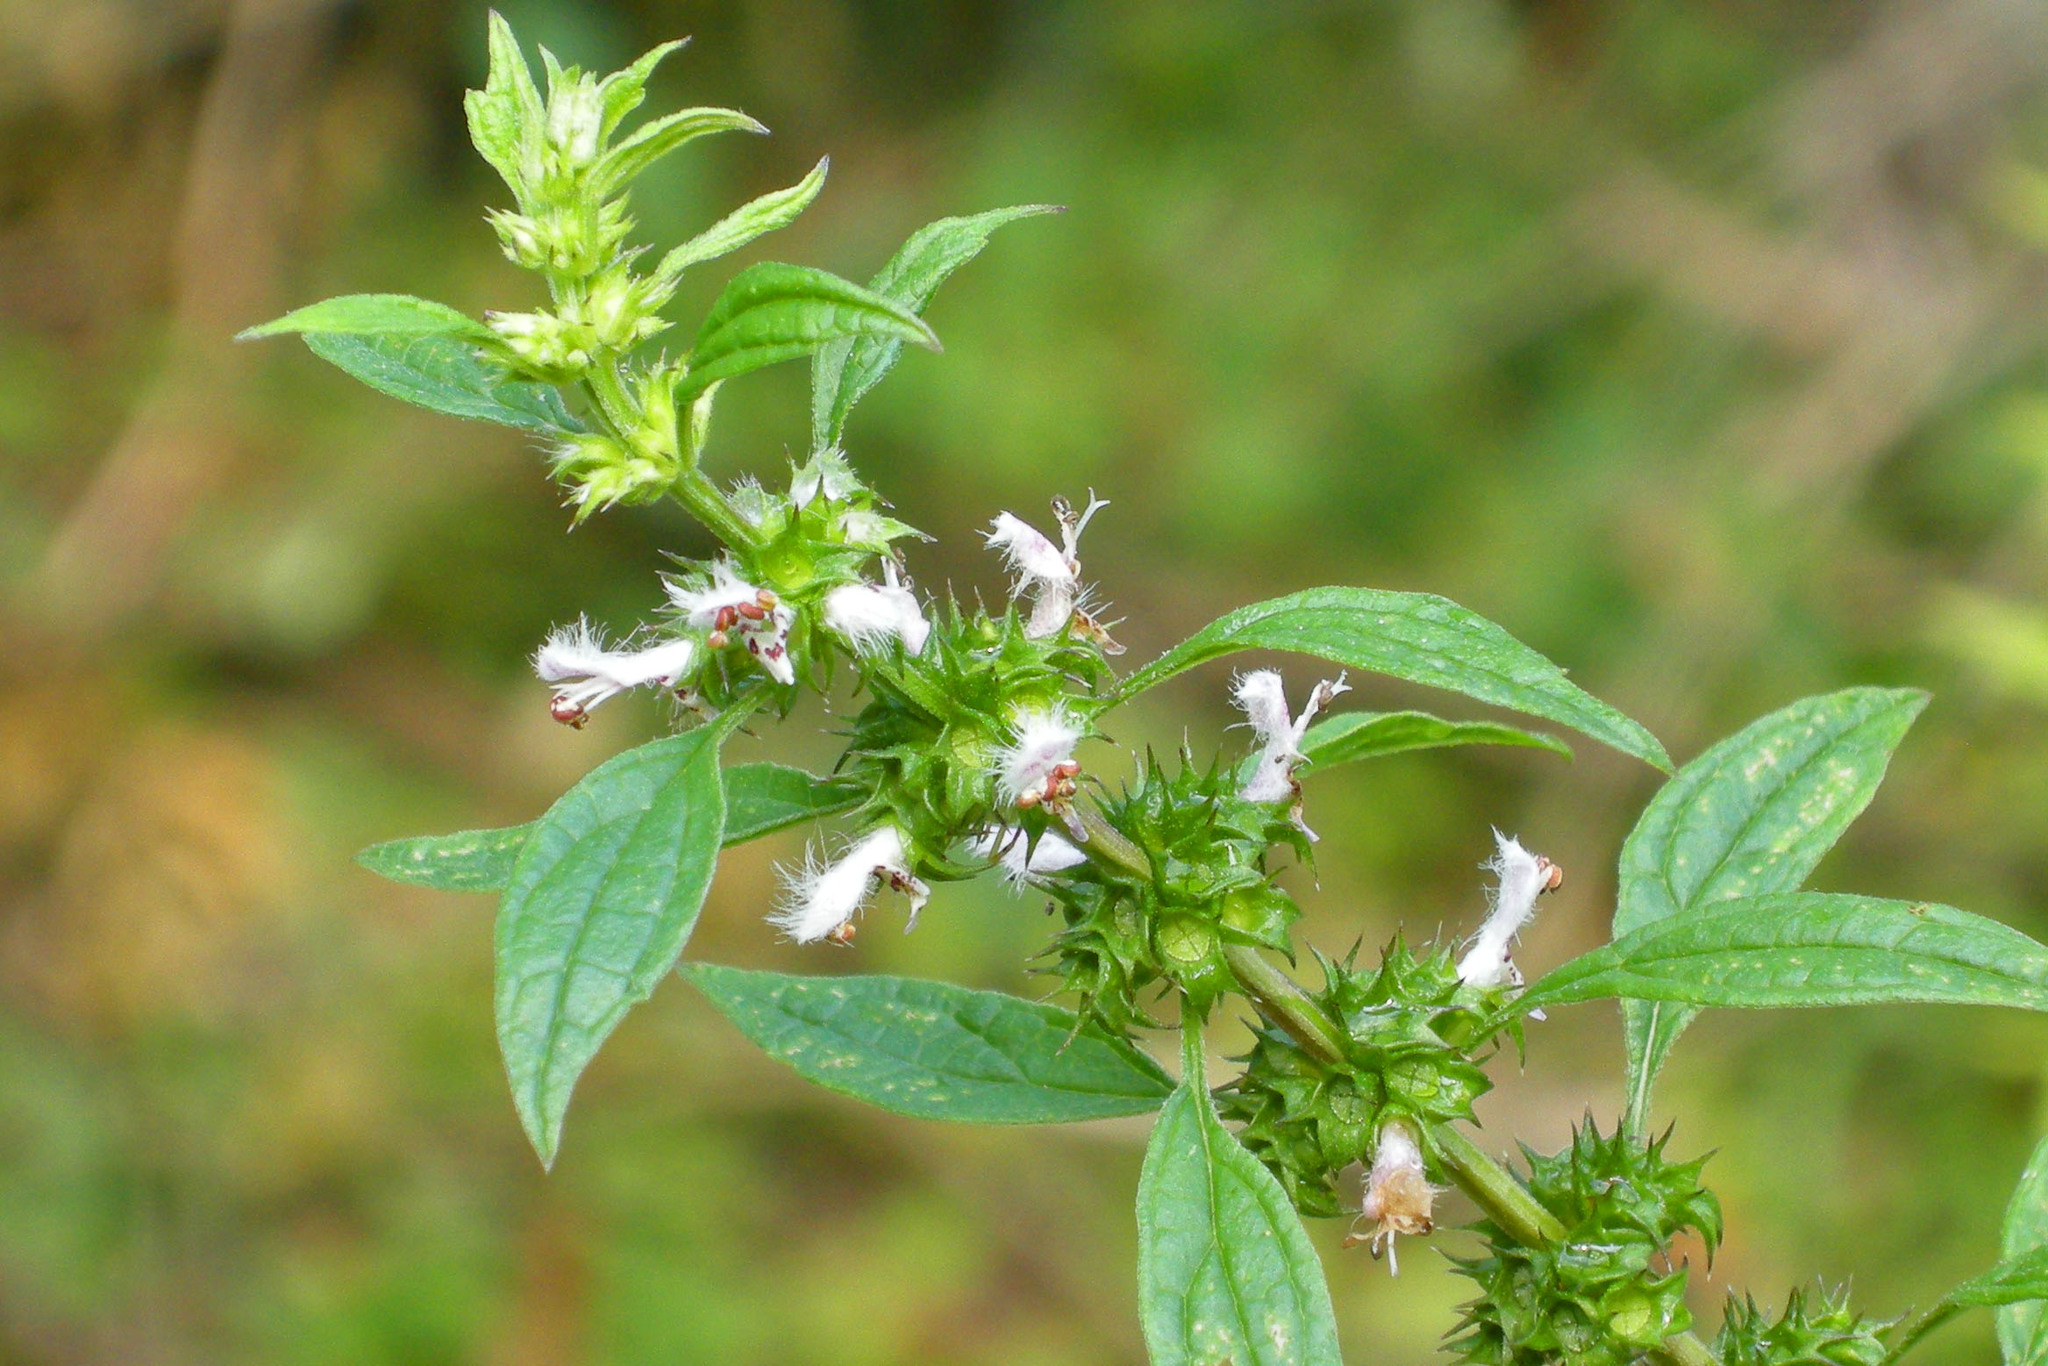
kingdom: Plantae
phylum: Tracheophyta
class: Magnoliopsida
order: Lamiales
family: Lamiaceae
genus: Leonurus
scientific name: Leonurus cardiaca
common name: Motherwort
